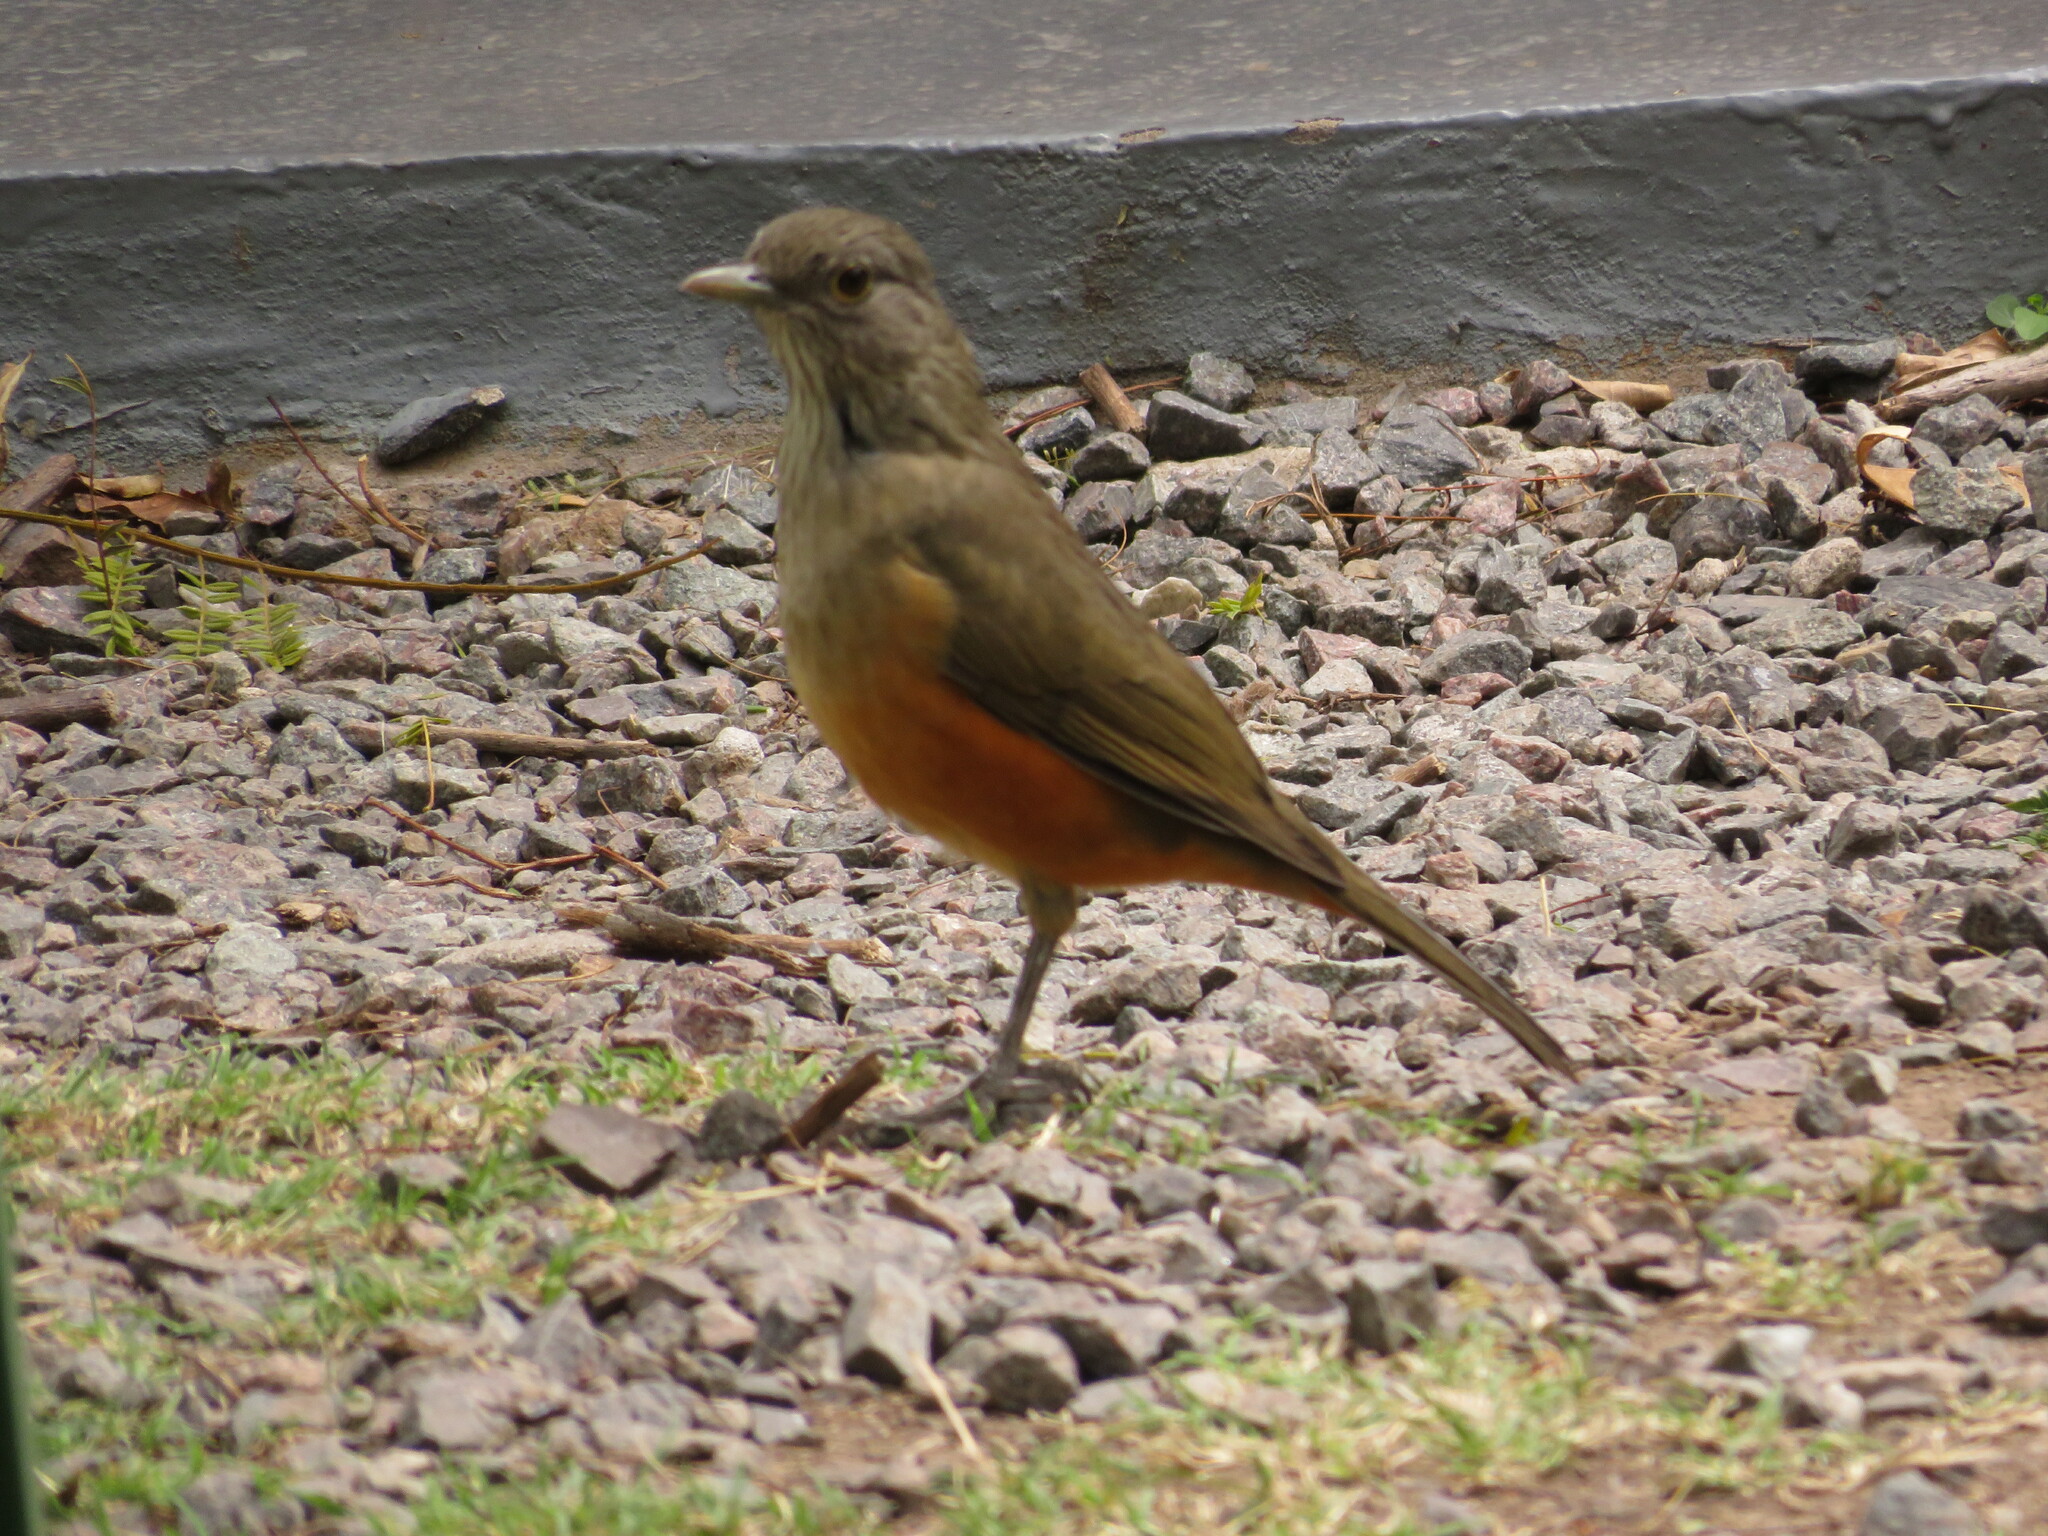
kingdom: Animalia
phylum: Chordata
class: Aves
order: Passeriformes
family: Turdidae
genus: Turdus
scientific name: Turdus rufiventris
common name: Rufous-bellied thrush
